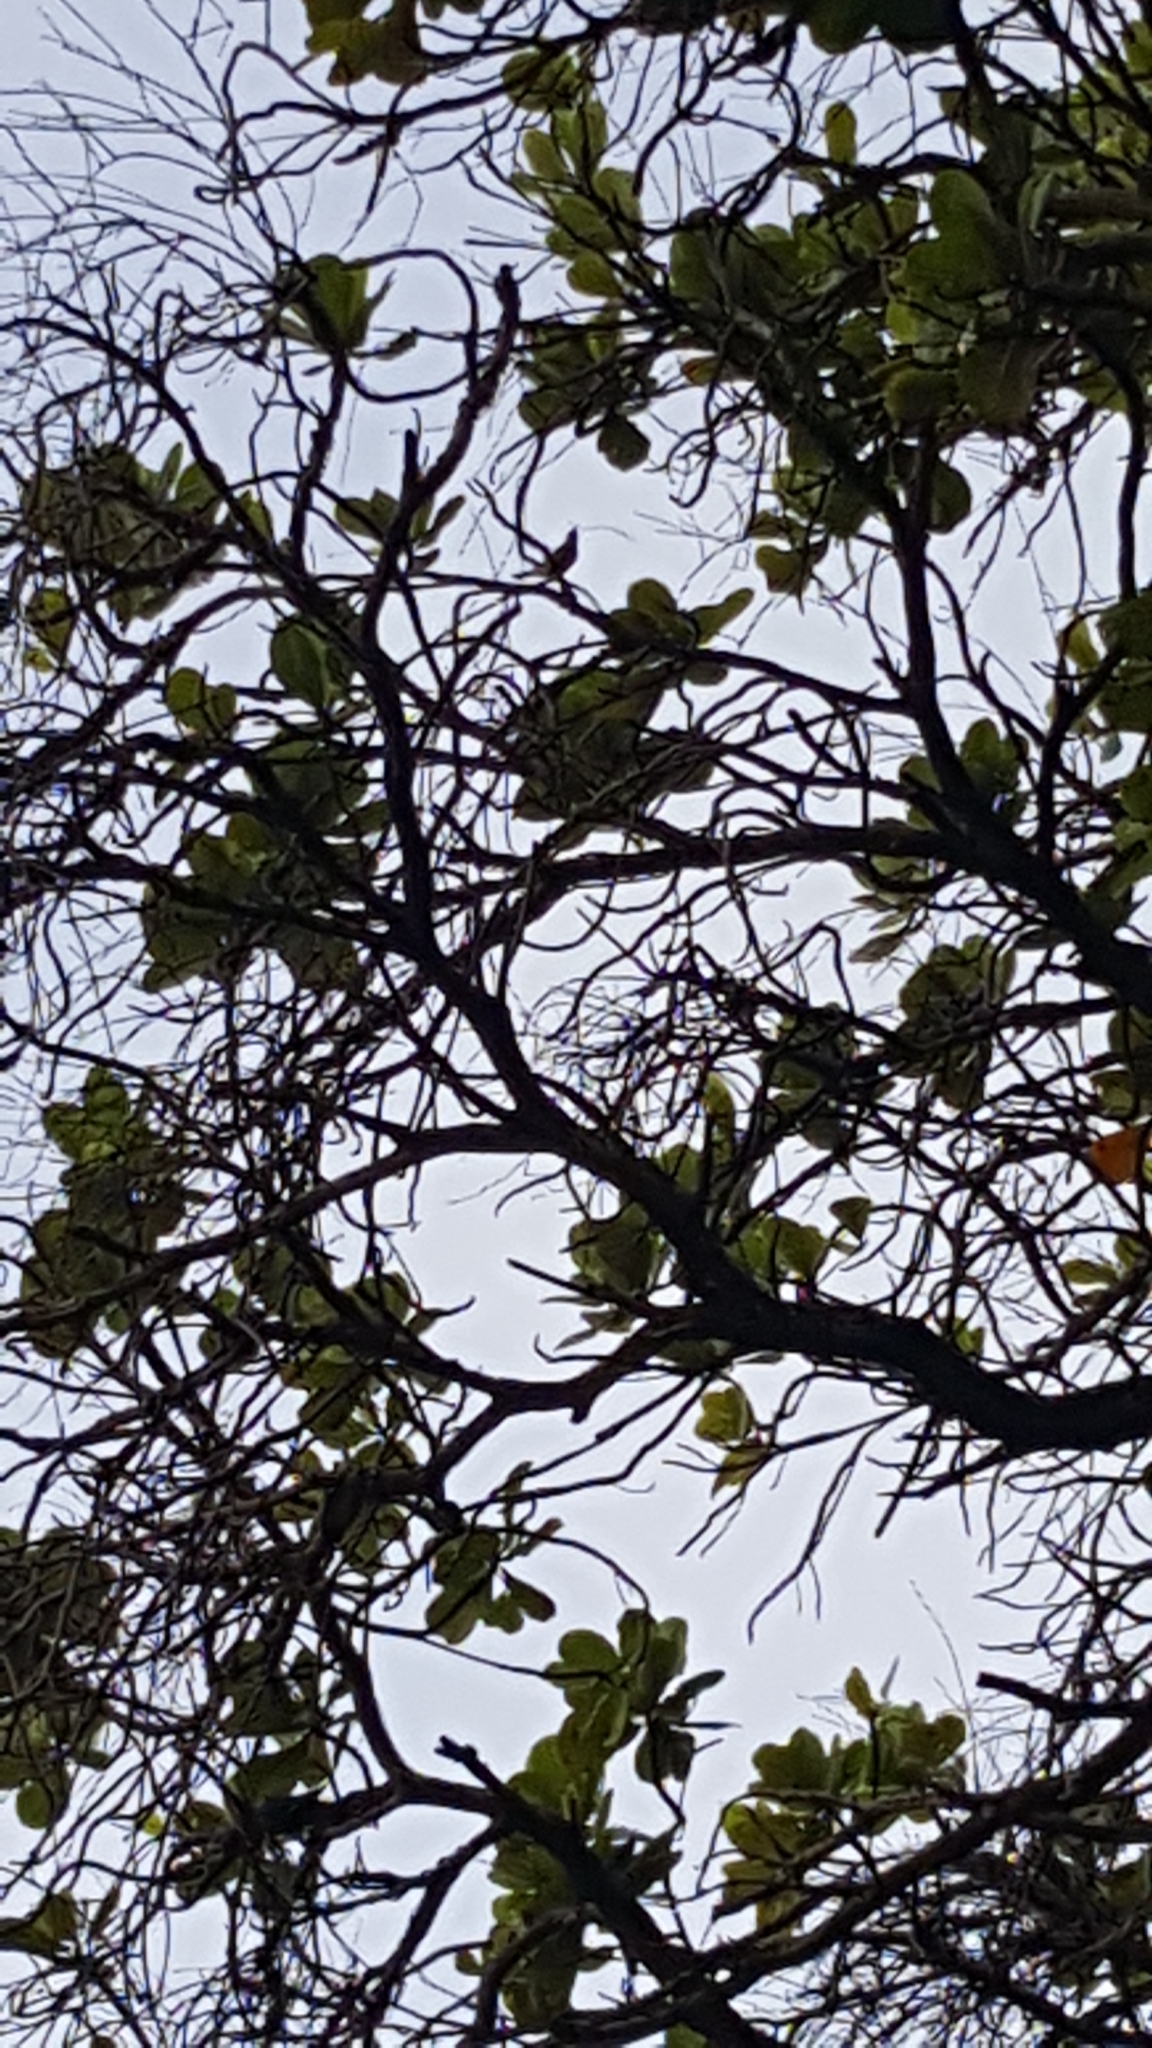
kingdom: Animalia
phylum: Chordata
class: Aves
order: Apodiformes
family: Trochilidae
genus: Eupetomena
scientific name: Eupetomena macroura
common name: Swallow-tailed hummingbird
